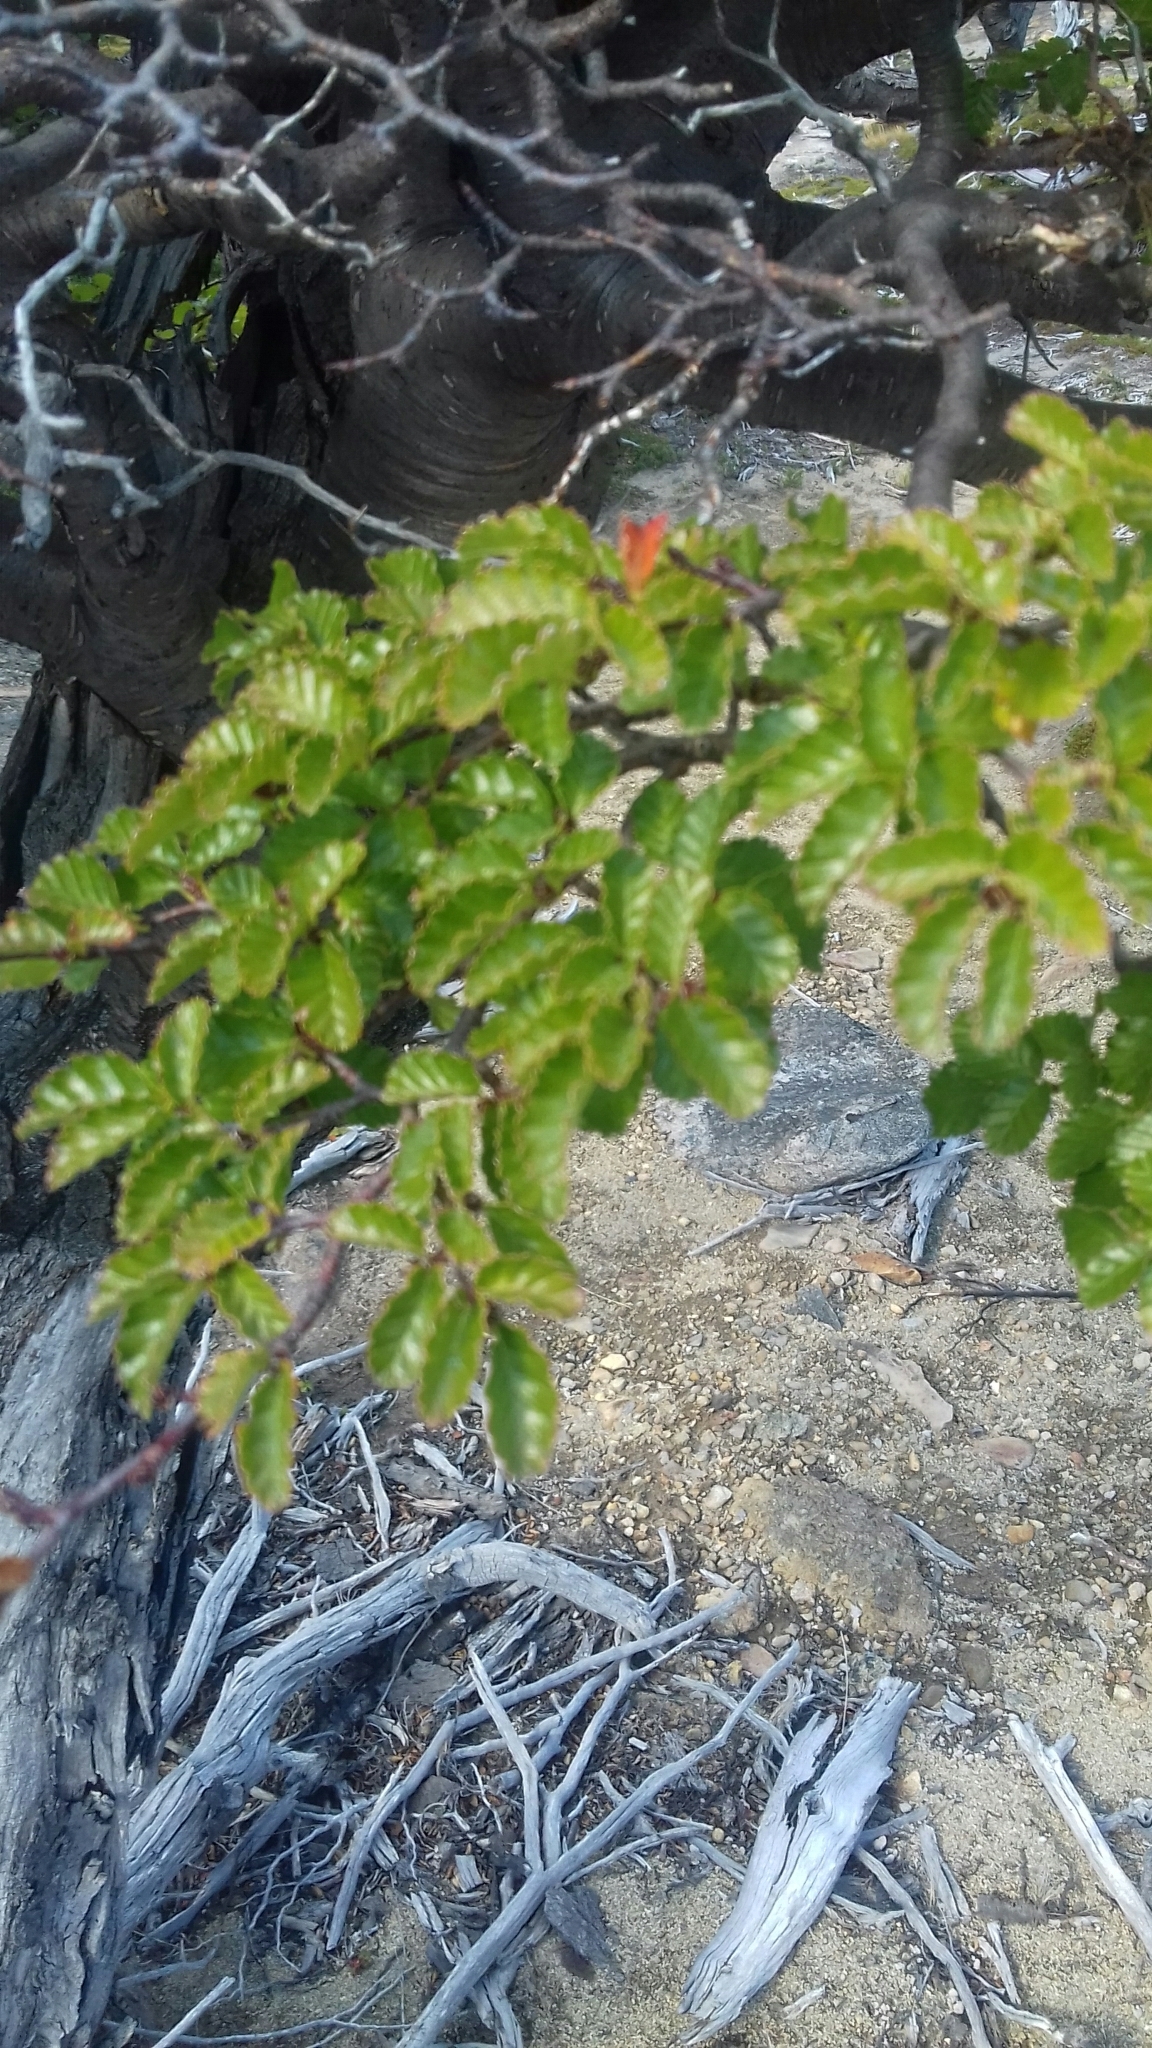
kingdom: Plantae
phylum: Tracheophyta
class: Magnoliopsida
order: Fagales
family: Nothofagaceae
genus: Nothofagus
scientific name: Nothofagus pumilio
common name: Lenga beech
